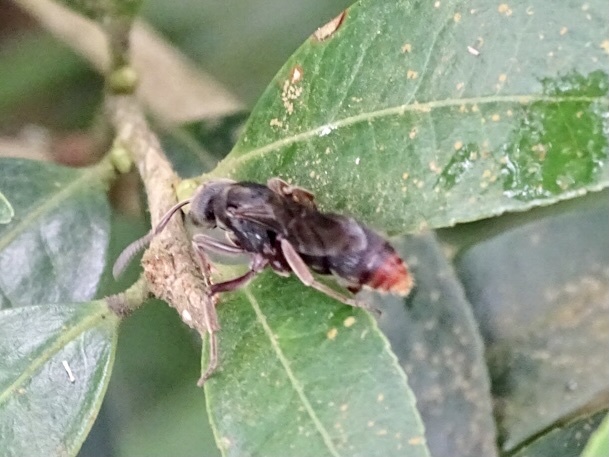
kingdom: Animalia
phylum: Arthropoda
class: Insecta
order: Hymenoptera
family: Formicidae
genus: Pseudoneoponera
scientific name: Pseudoneoponera rufipes
